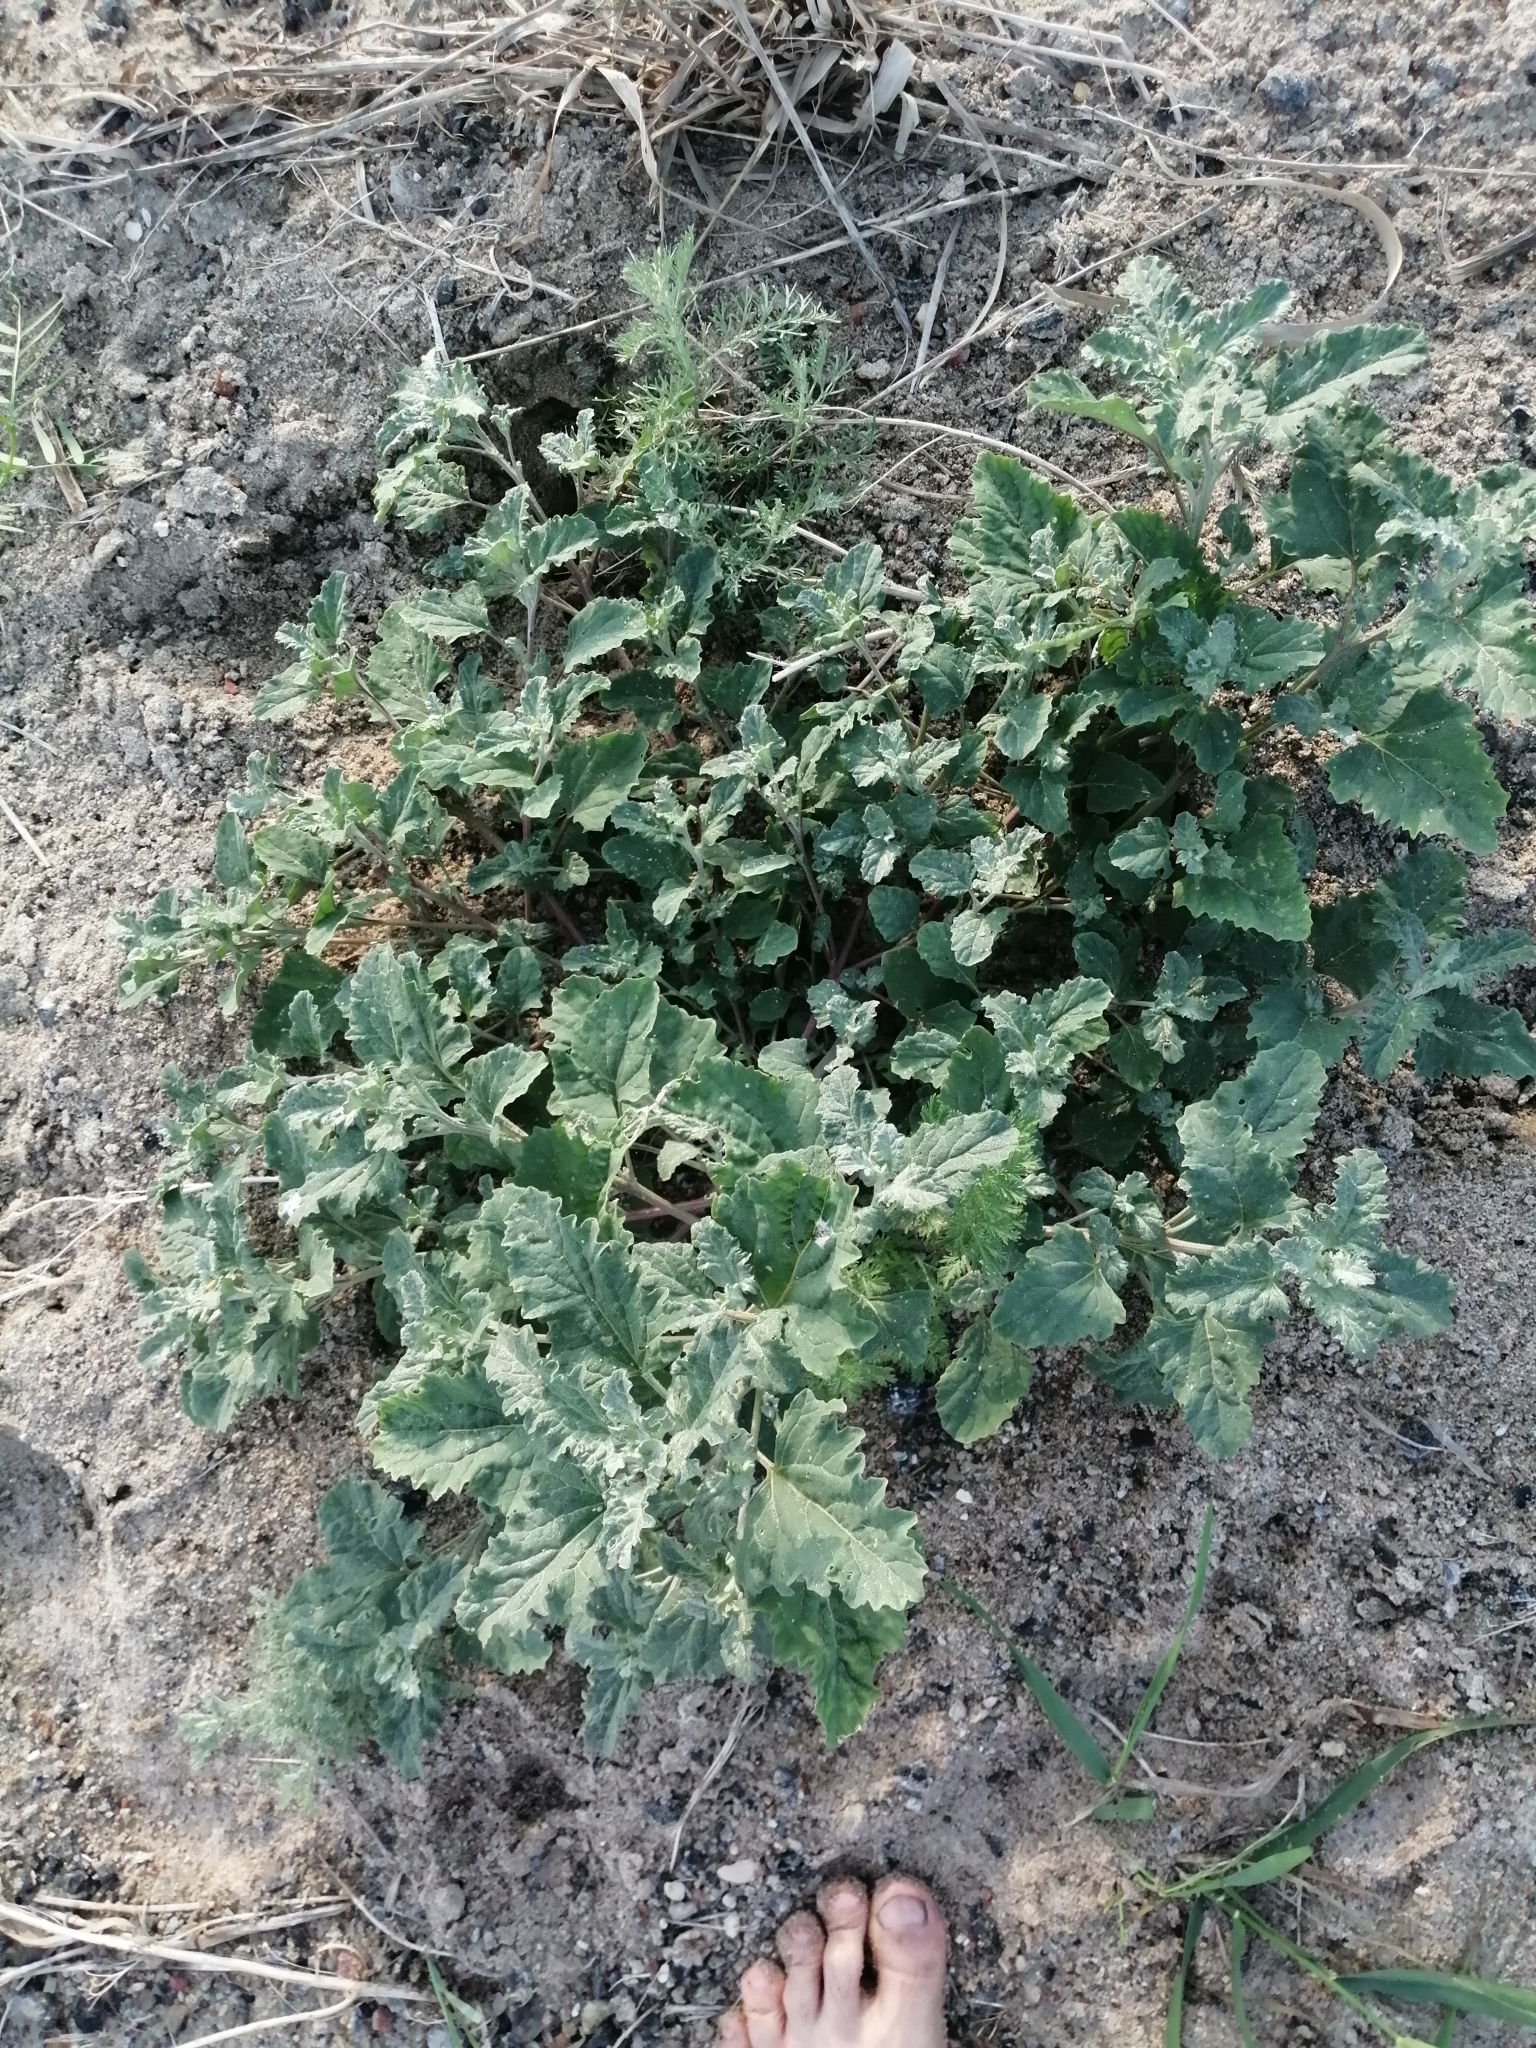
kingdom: Plantae
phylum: Tracheophyta
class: Magnoliopsida
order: Caryophyllales
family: Amaranthaceae
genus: Atriplex
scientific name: Atriplex tatarica
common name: Tatarian orache
